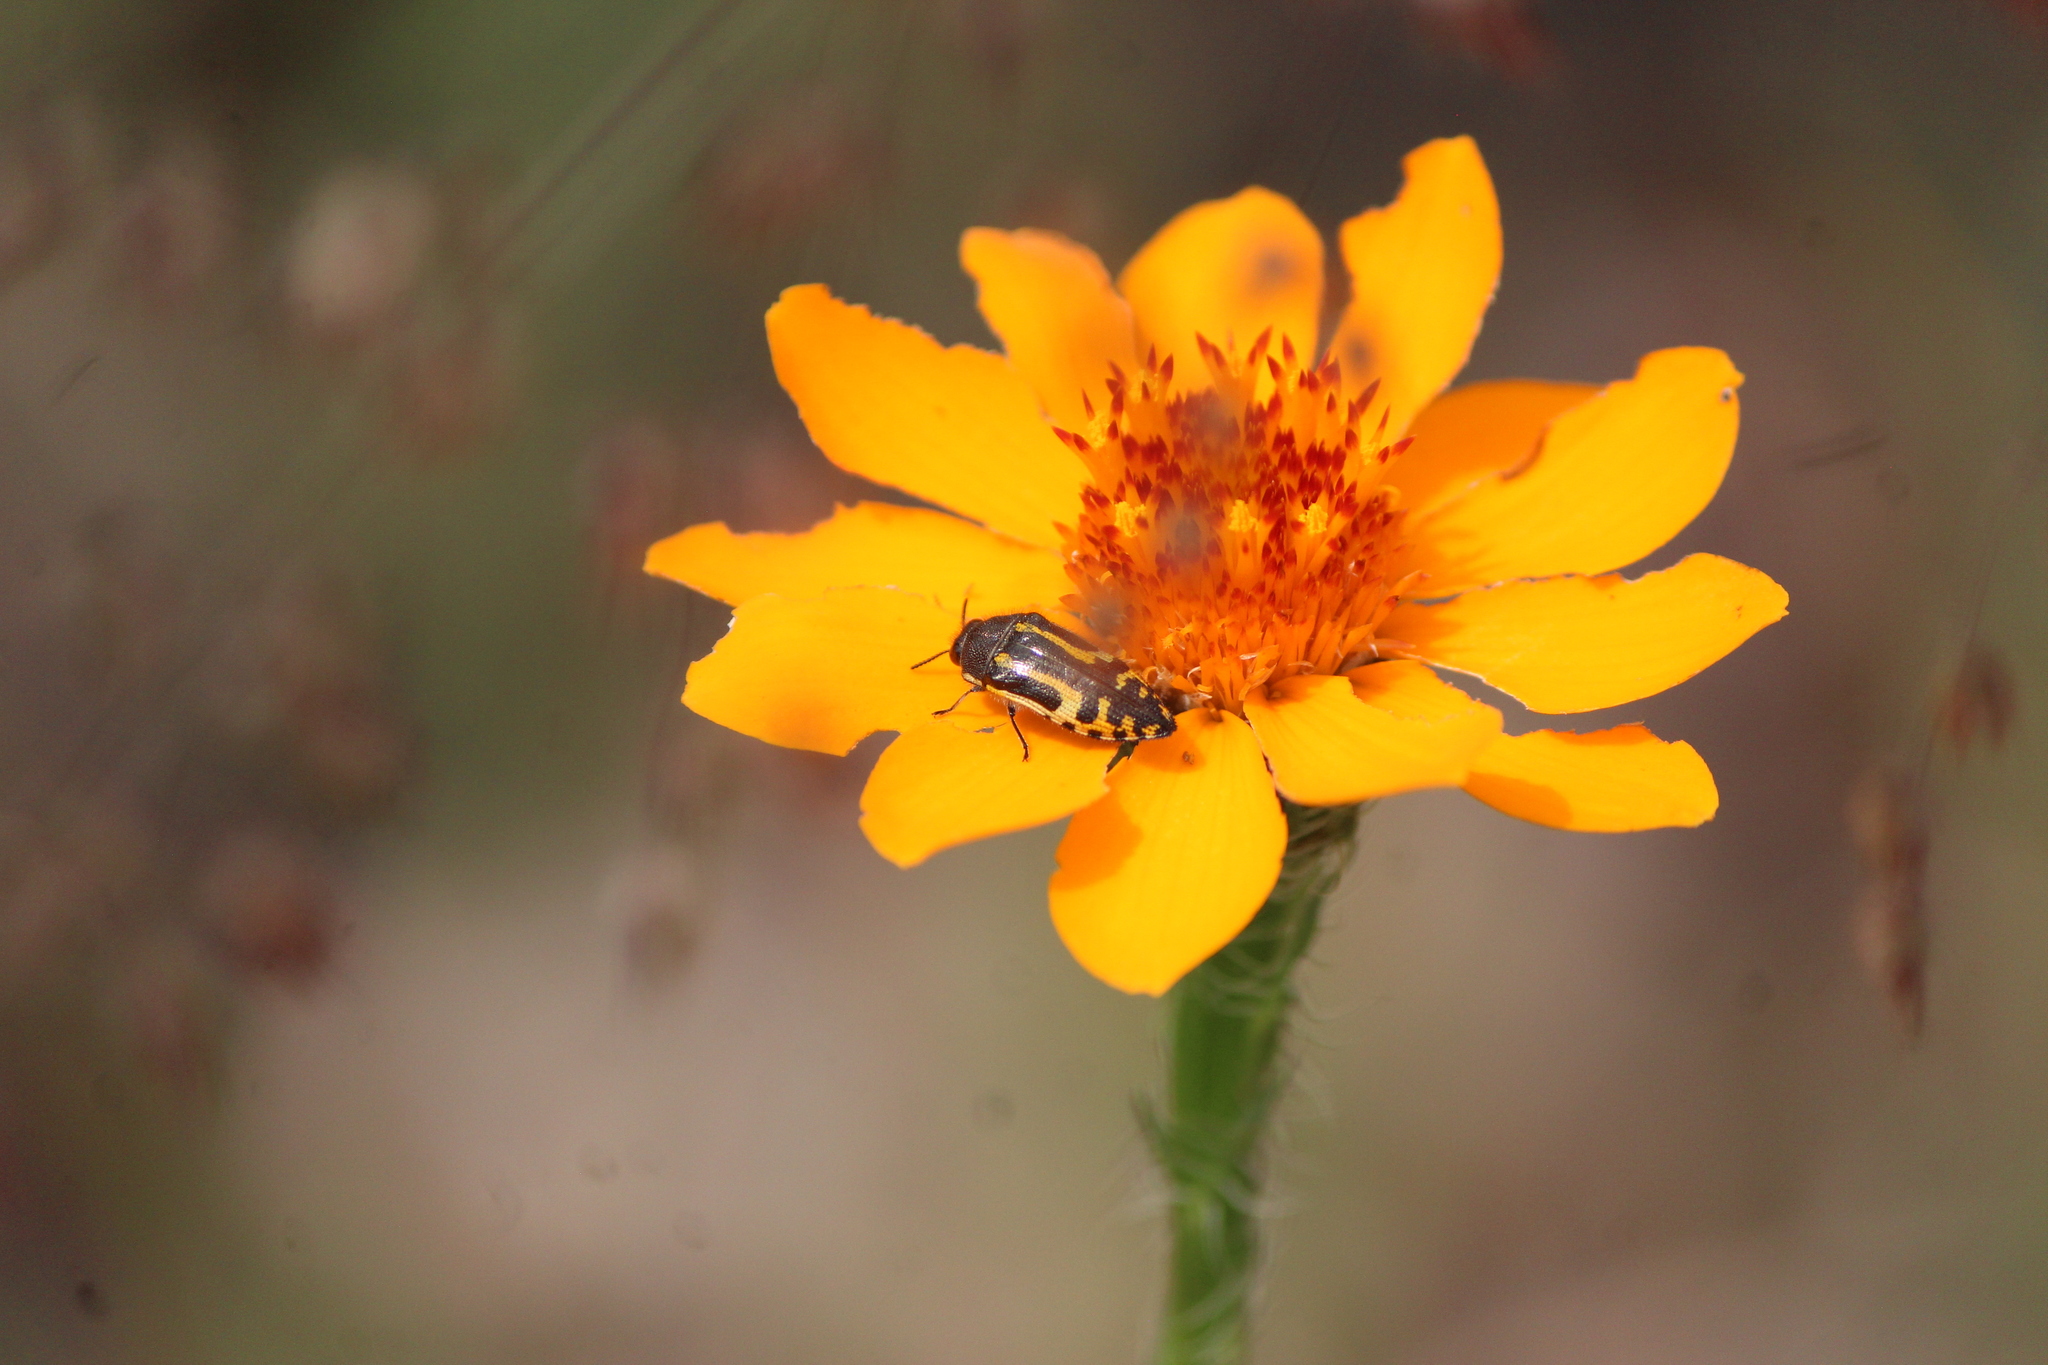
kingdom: Animalia
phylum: Arthropoda
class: Insecta
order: Coleoptera
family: Buprestidae
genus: Acmaeodera
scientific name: Acmaeodera scalaris
